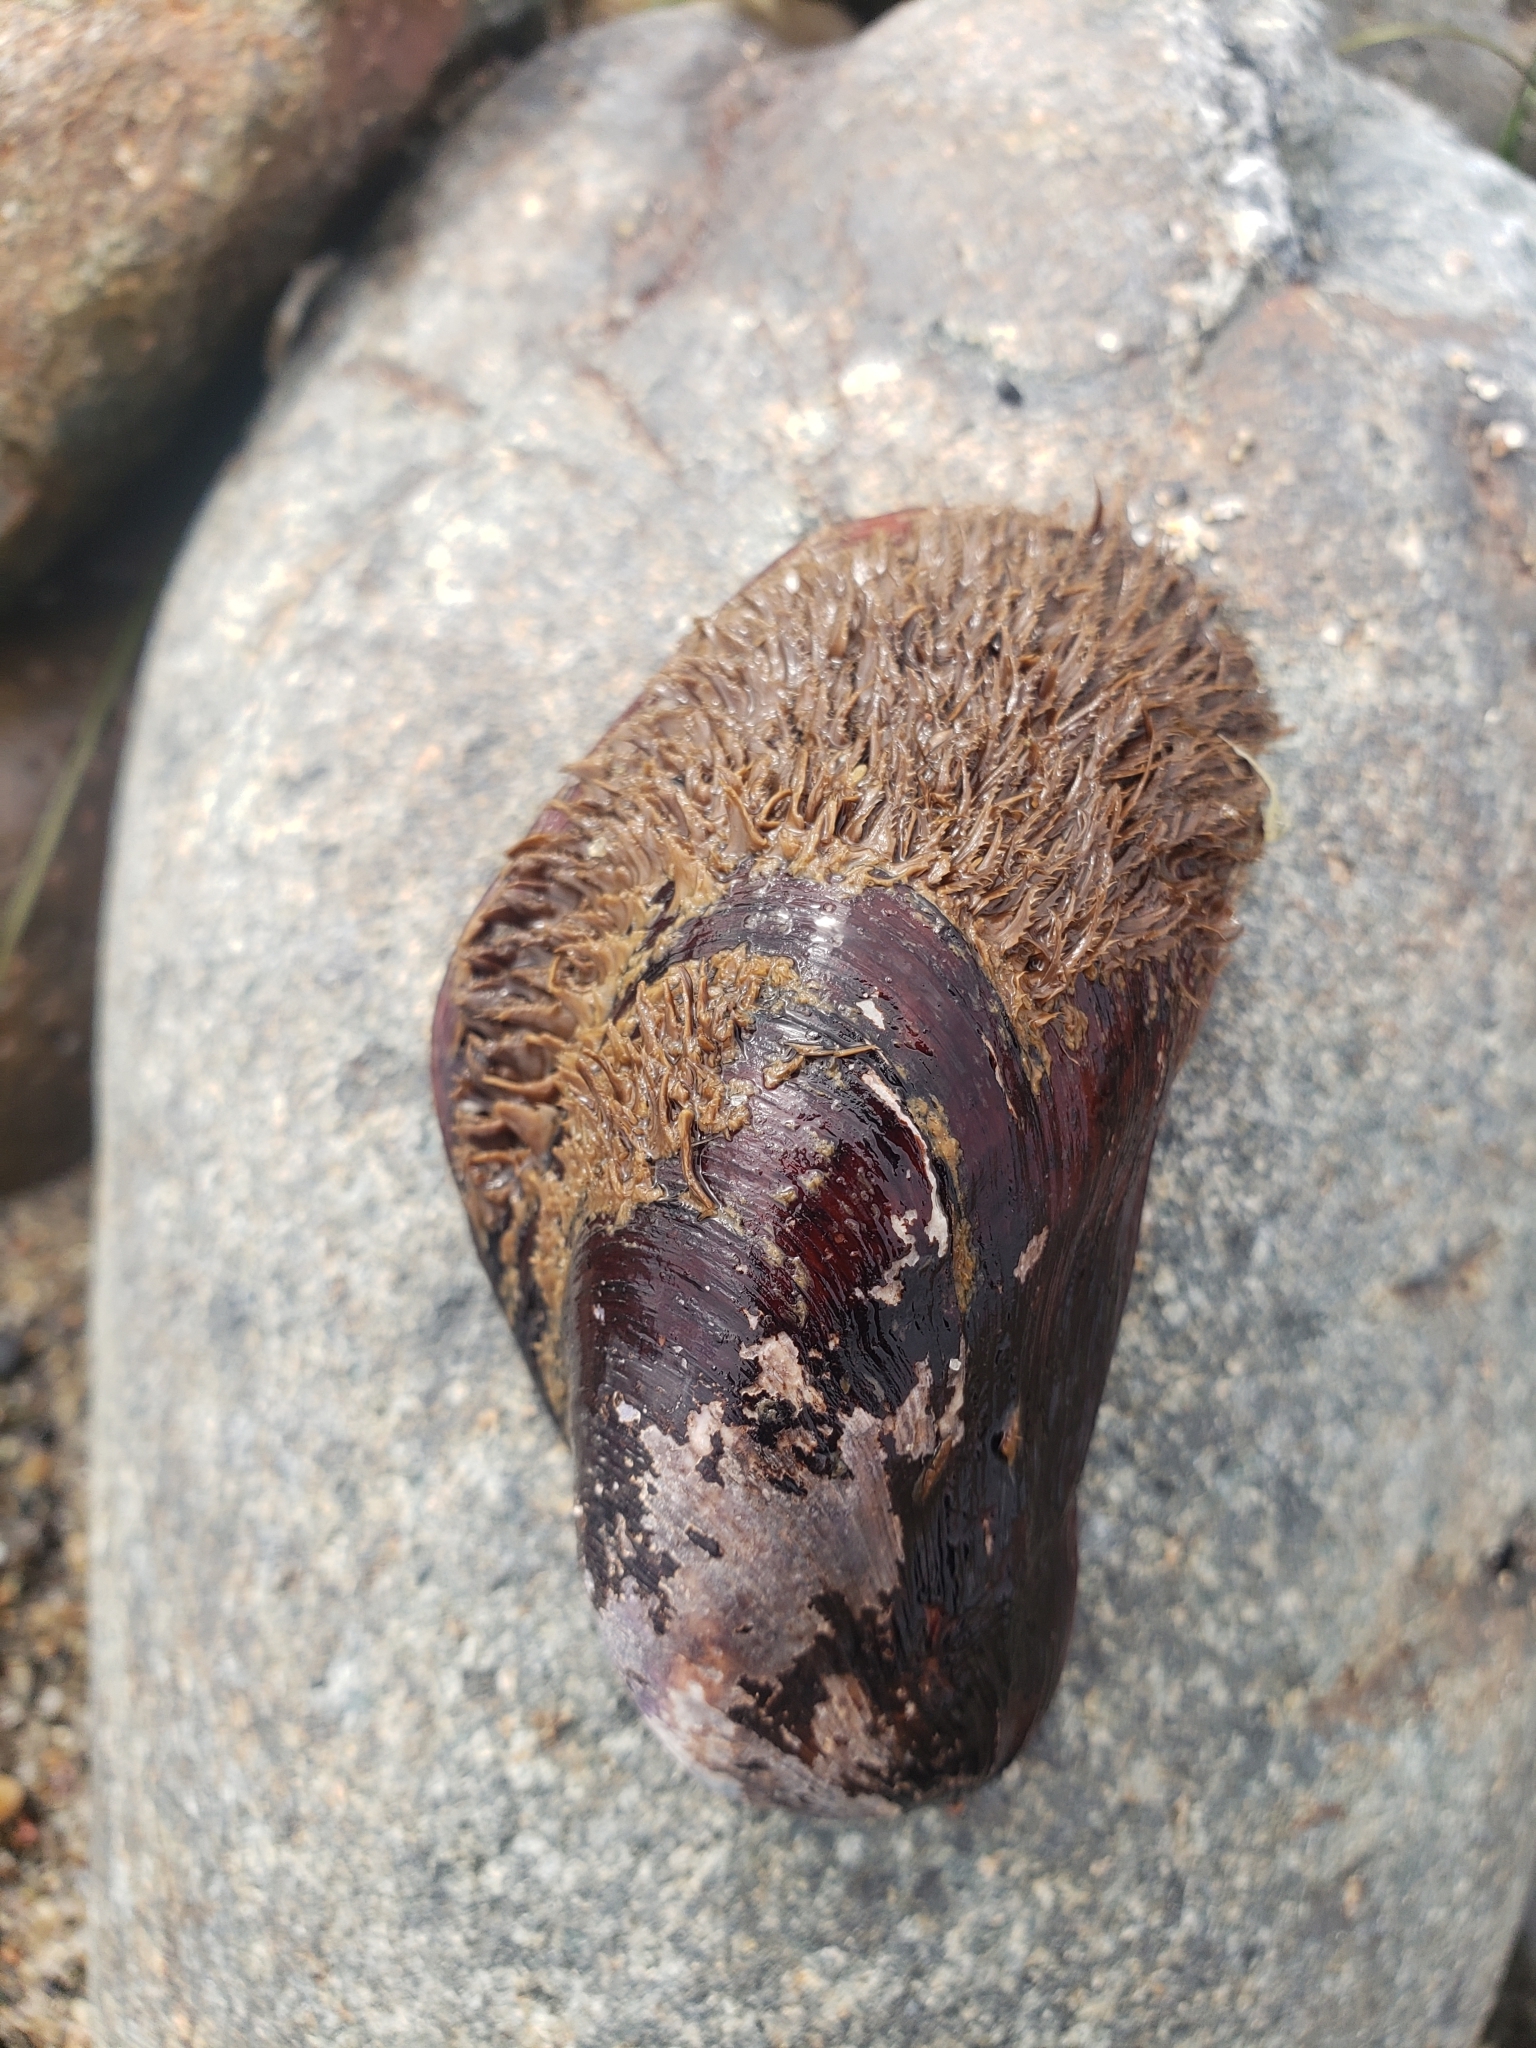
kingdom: Animalia
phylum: Mollusca
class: Bivalvia
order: Mytilida
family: Mytilidae
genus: Modiolus
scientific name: Modiolus capax
